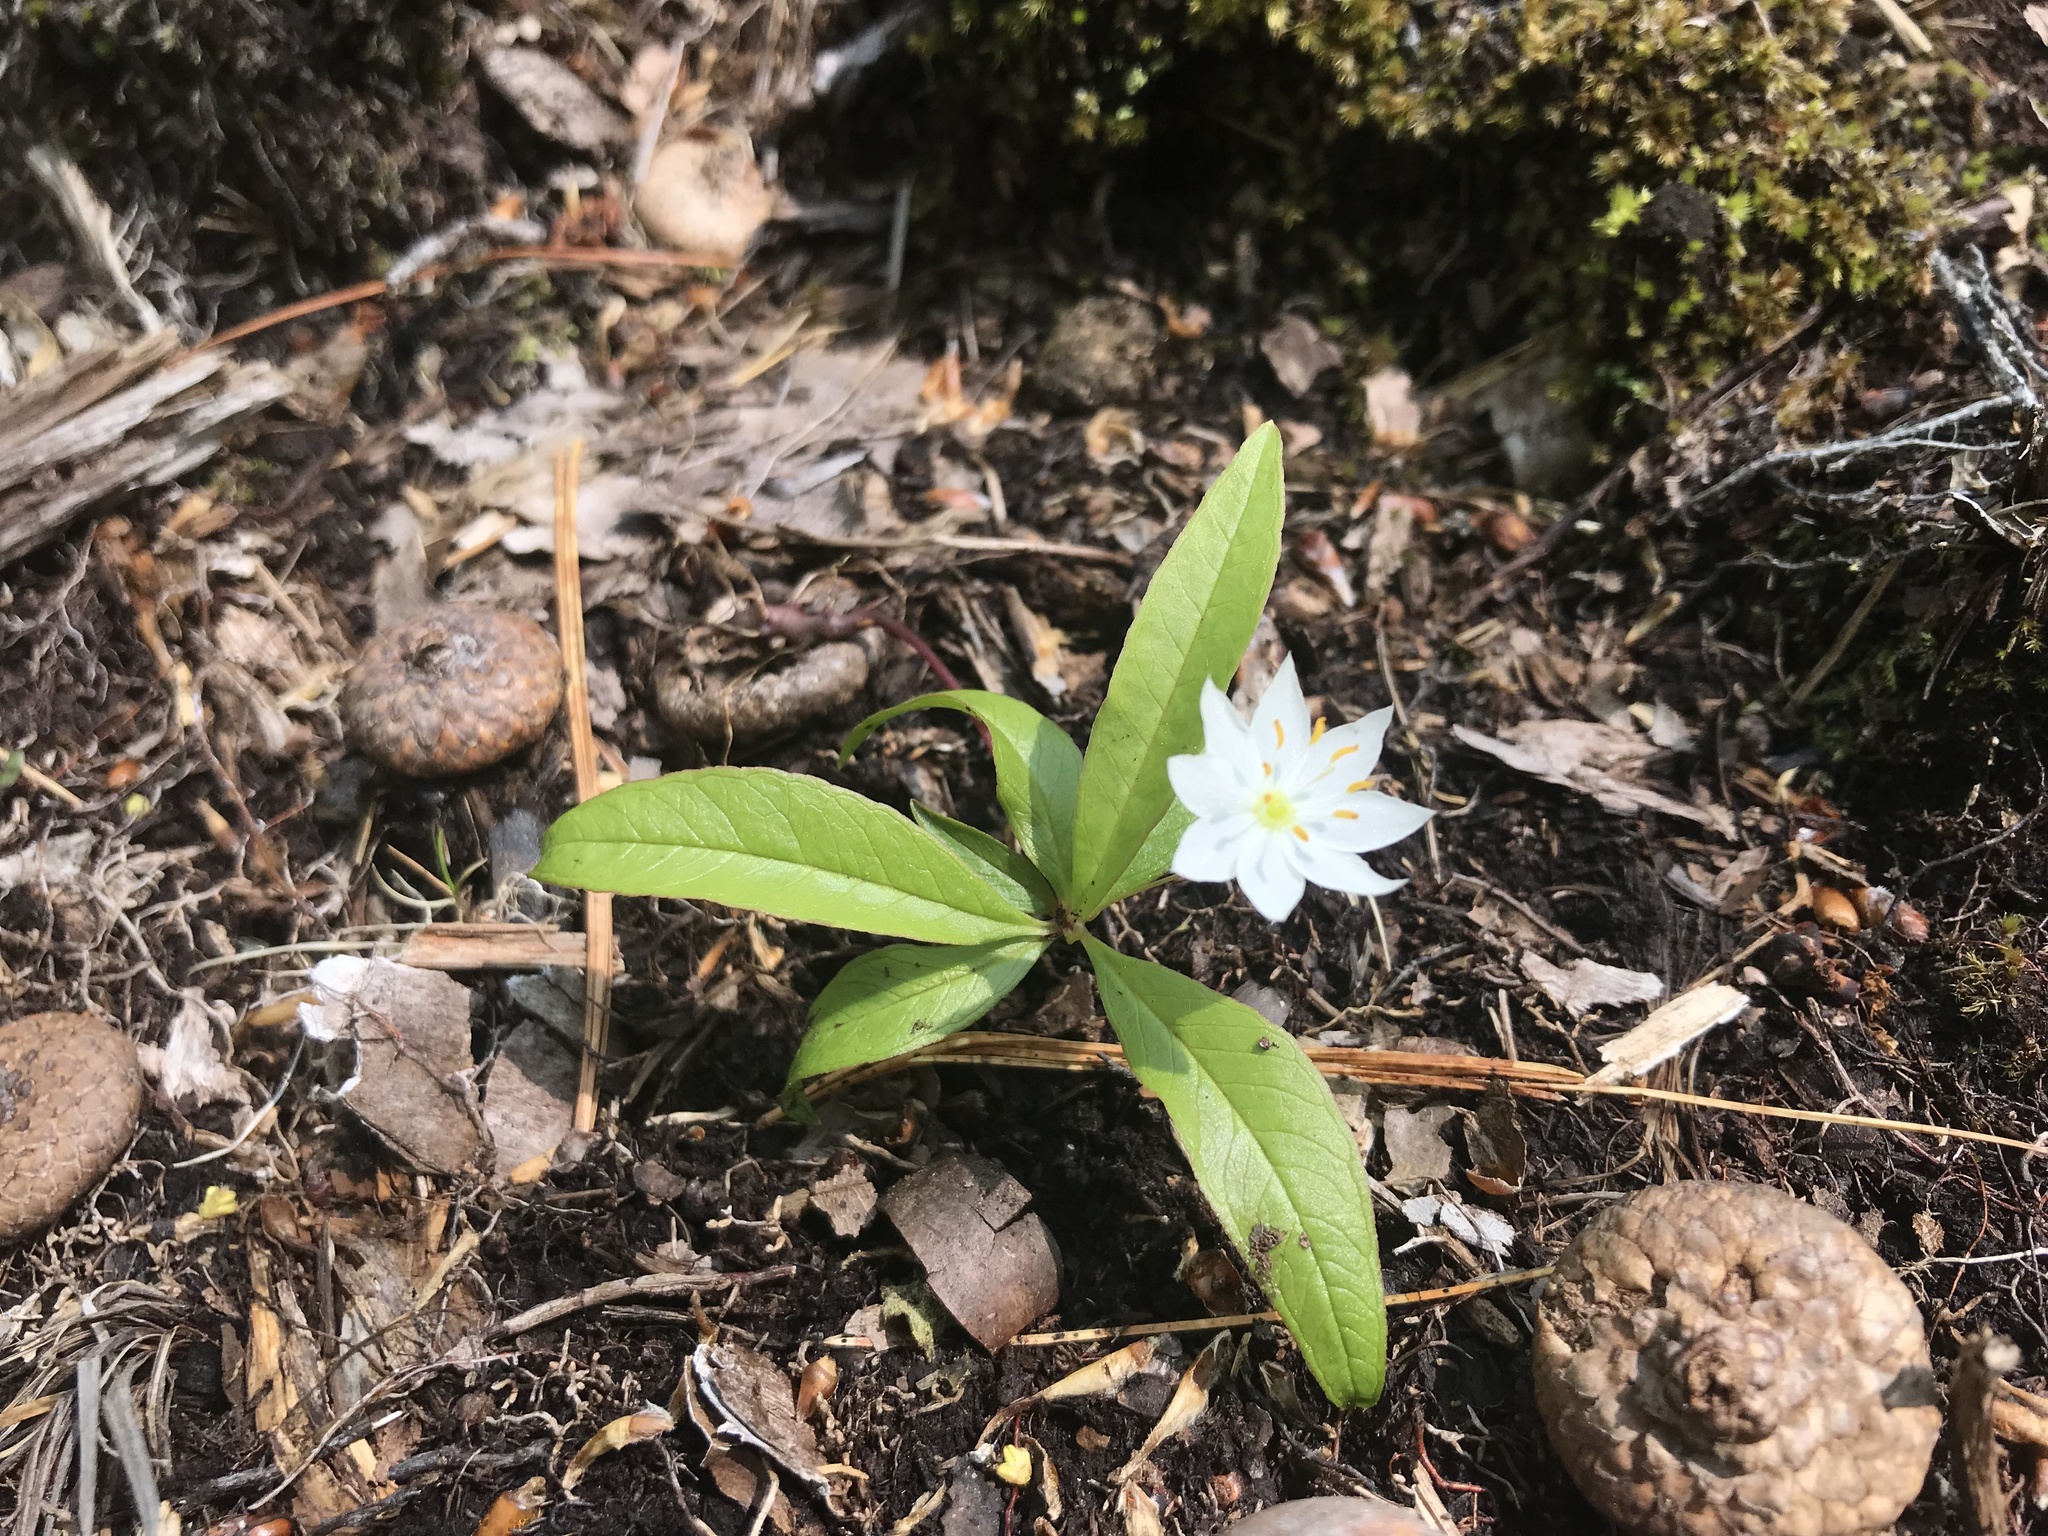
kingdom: Plantae
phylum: Tracheophyta
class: Magnoliopsida
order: Ericales
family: Primulaceae
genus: Lysimachia
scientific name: Lysimachia borealis
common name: American starflower
